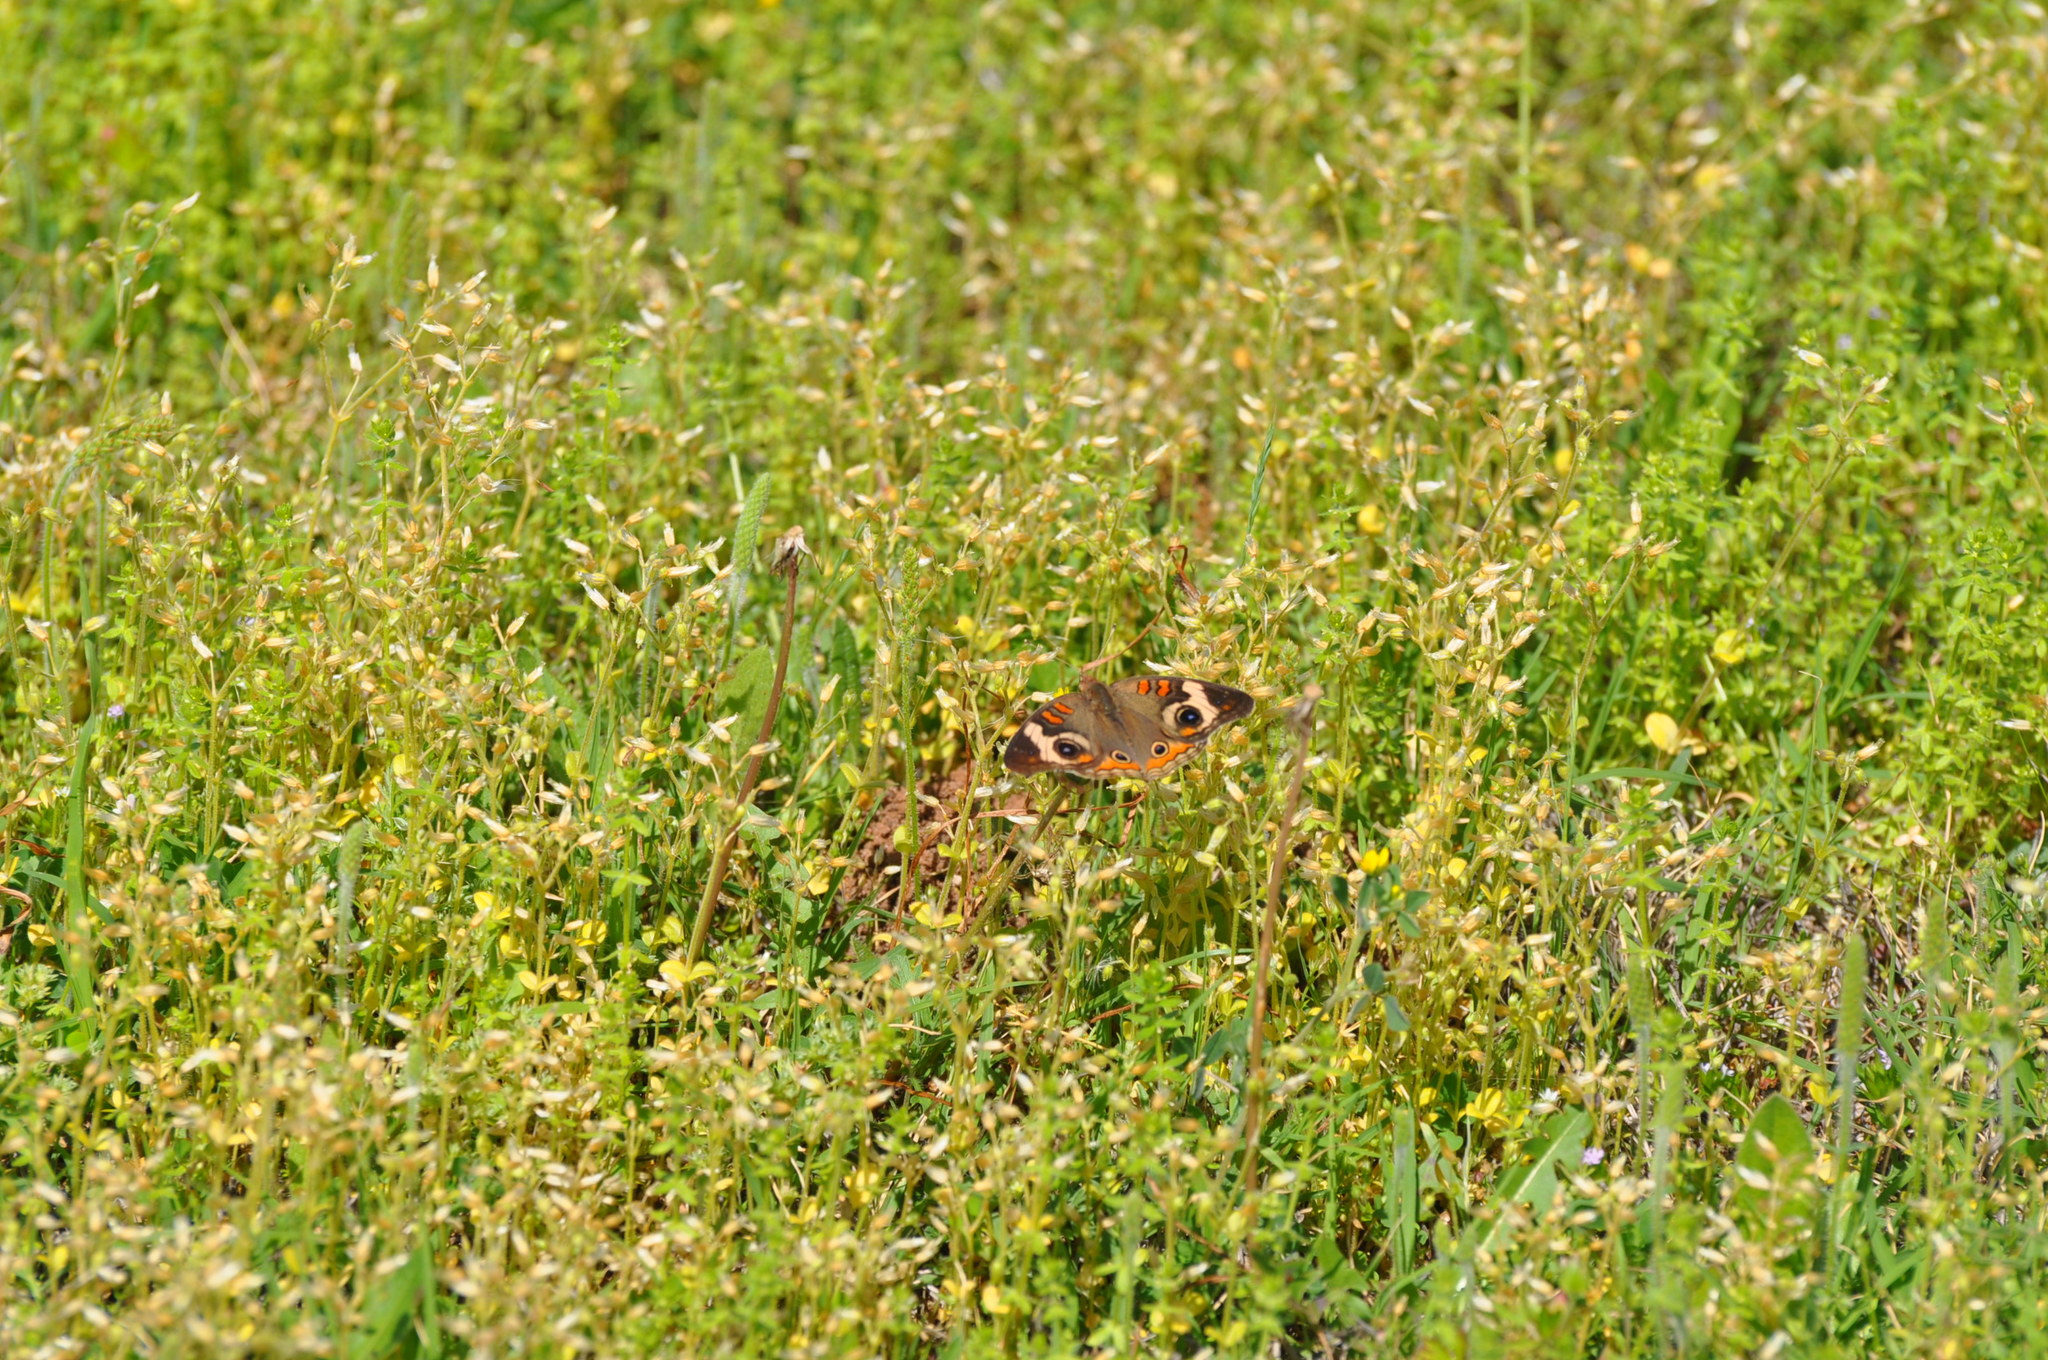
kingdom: Animalia
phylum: Arthropoda
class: Insecta
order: Lepidoptera
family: Nymphalidae
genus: Junonia
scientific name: Junonia coenia
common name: Common buckeye
